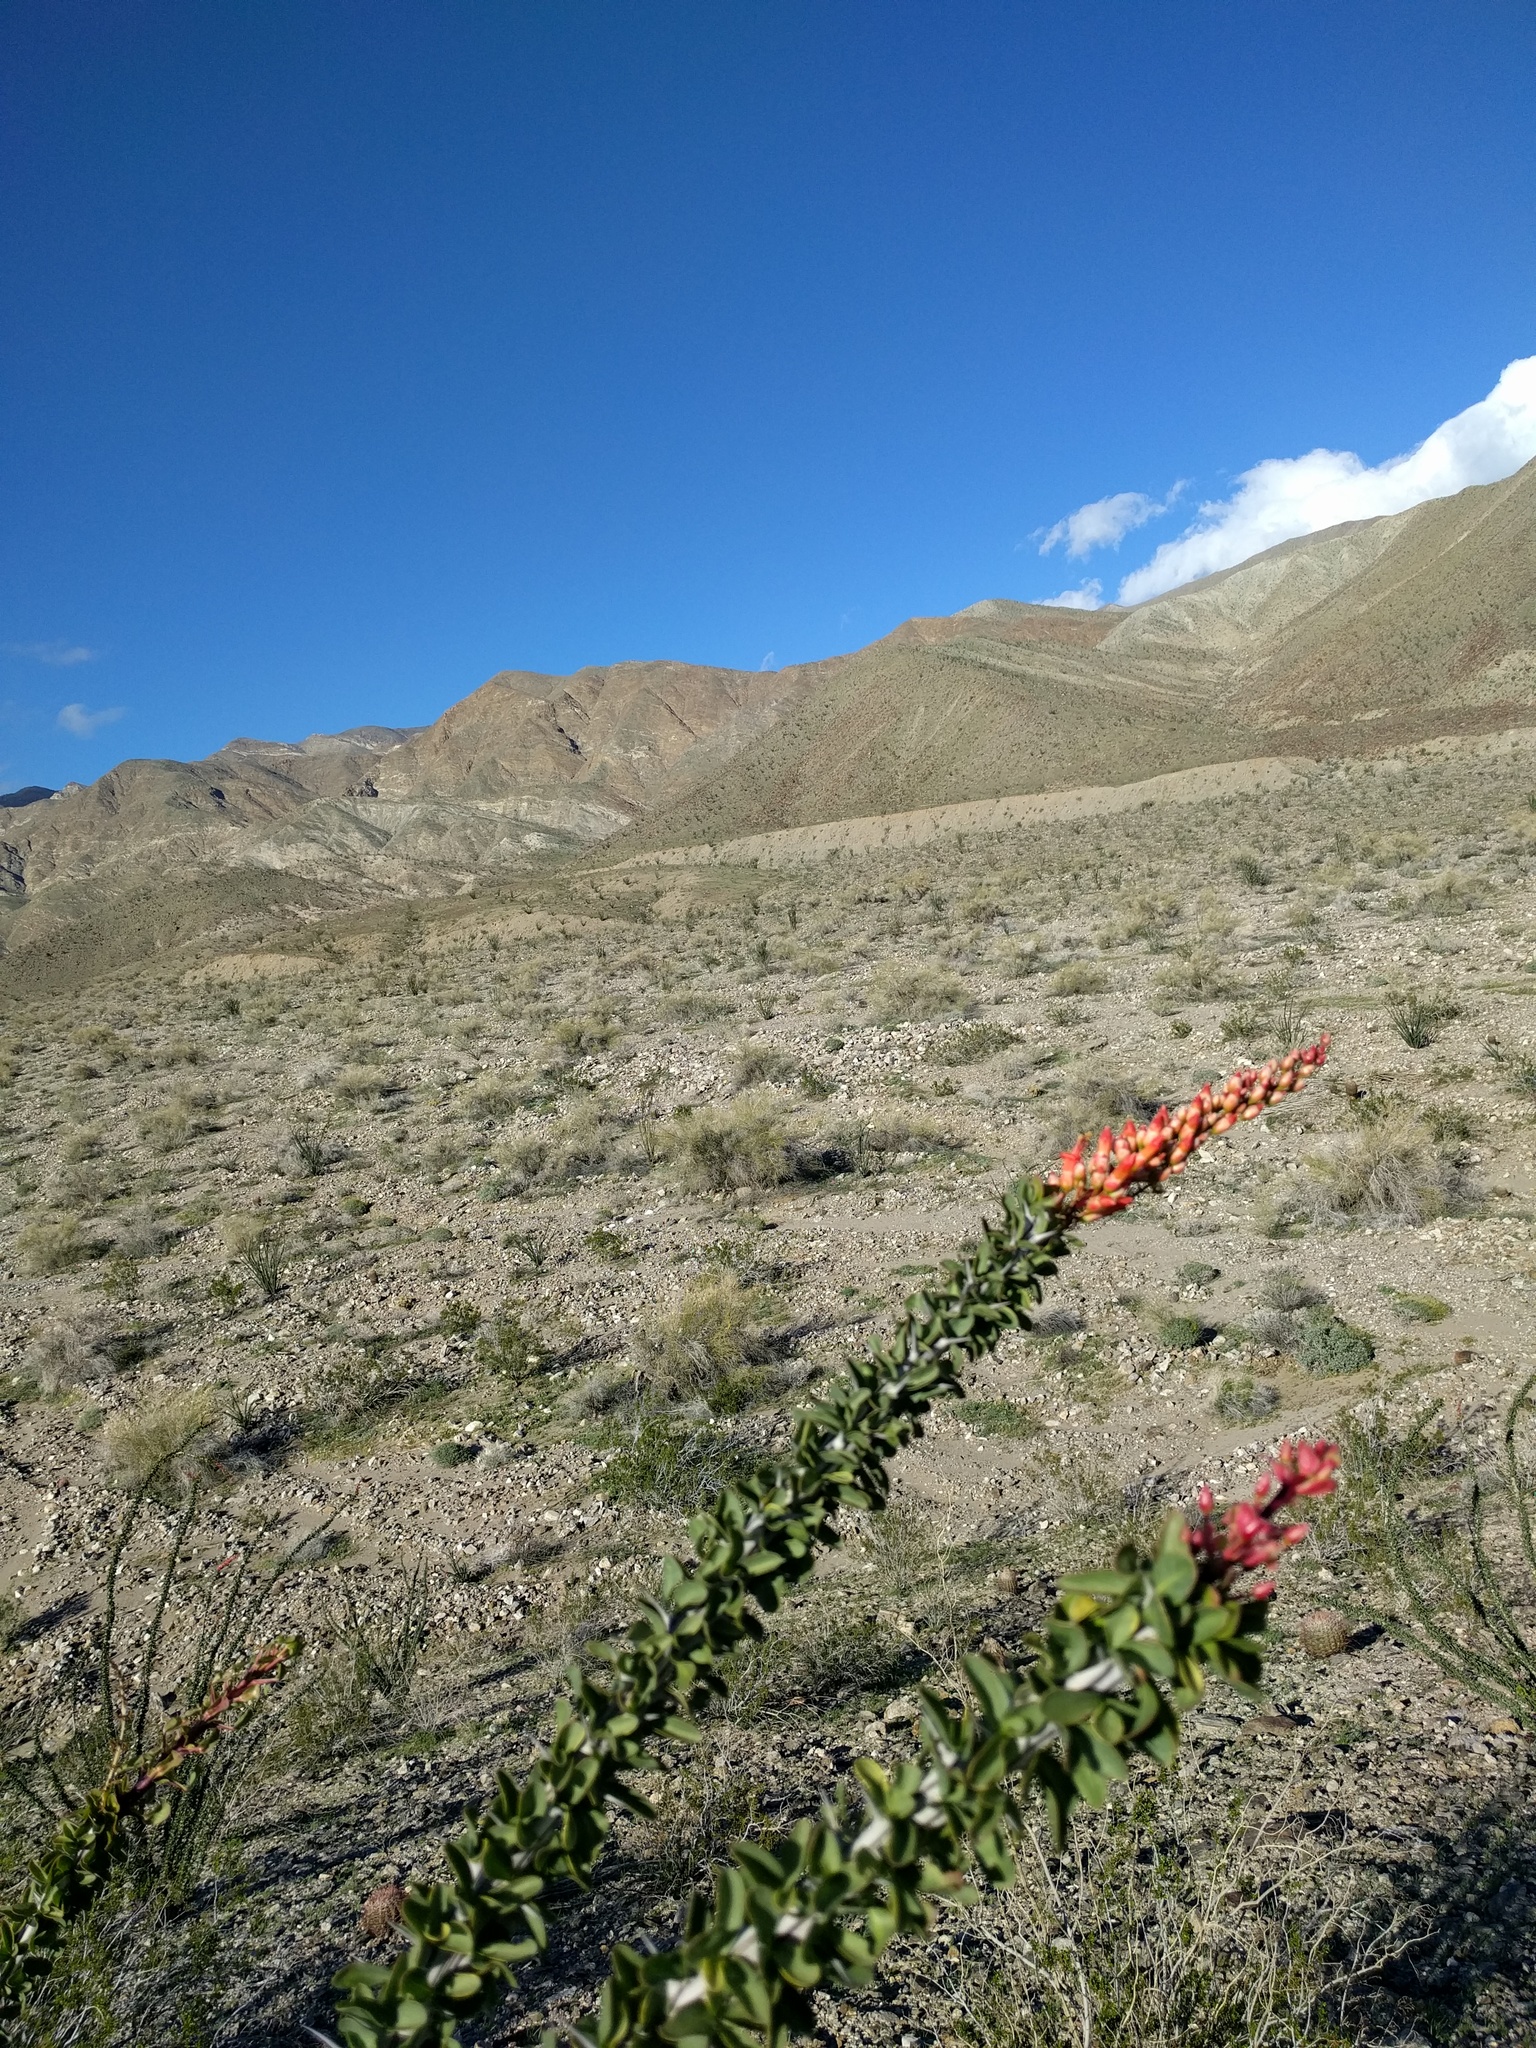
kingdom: Plantae
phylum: Tracheophyta
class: Magnoliopsida
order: Ericales
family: Fouquieriaceae
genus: Fouquieria
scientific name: Fouquieria splendens
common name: Vine-cactus
